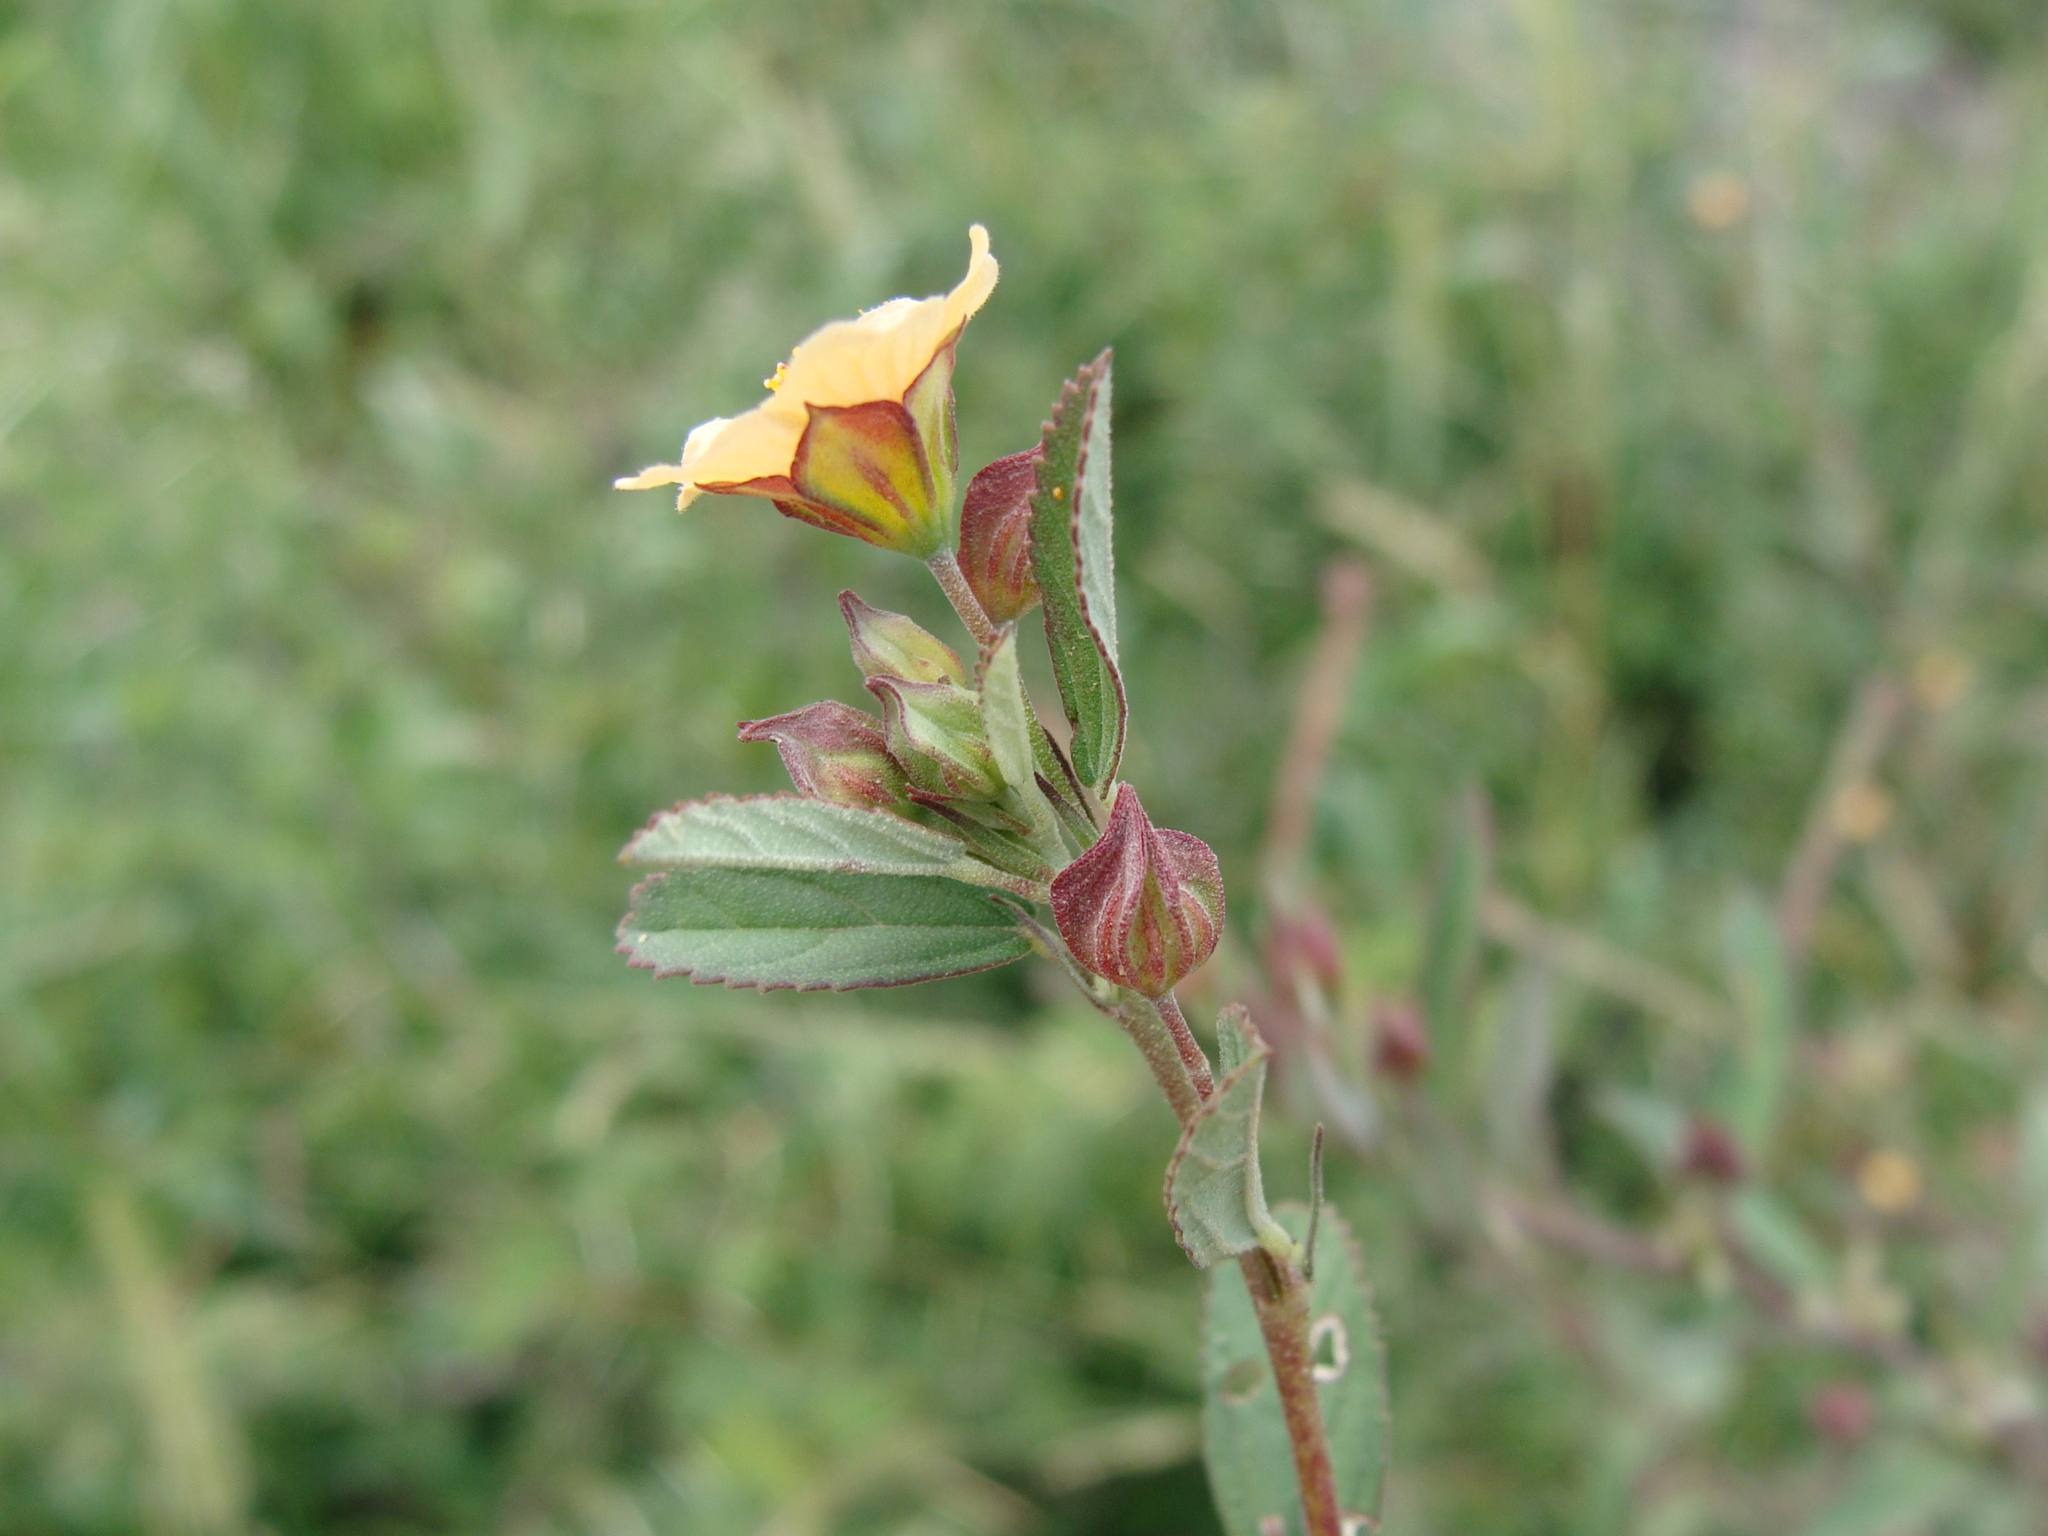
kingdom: Plantae
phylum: Tracheophyta
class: Magnoliopsida
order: Malvales
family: Malvaceae
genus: Sida
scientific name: Sida rhombifolia
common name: Queensland-hemp
